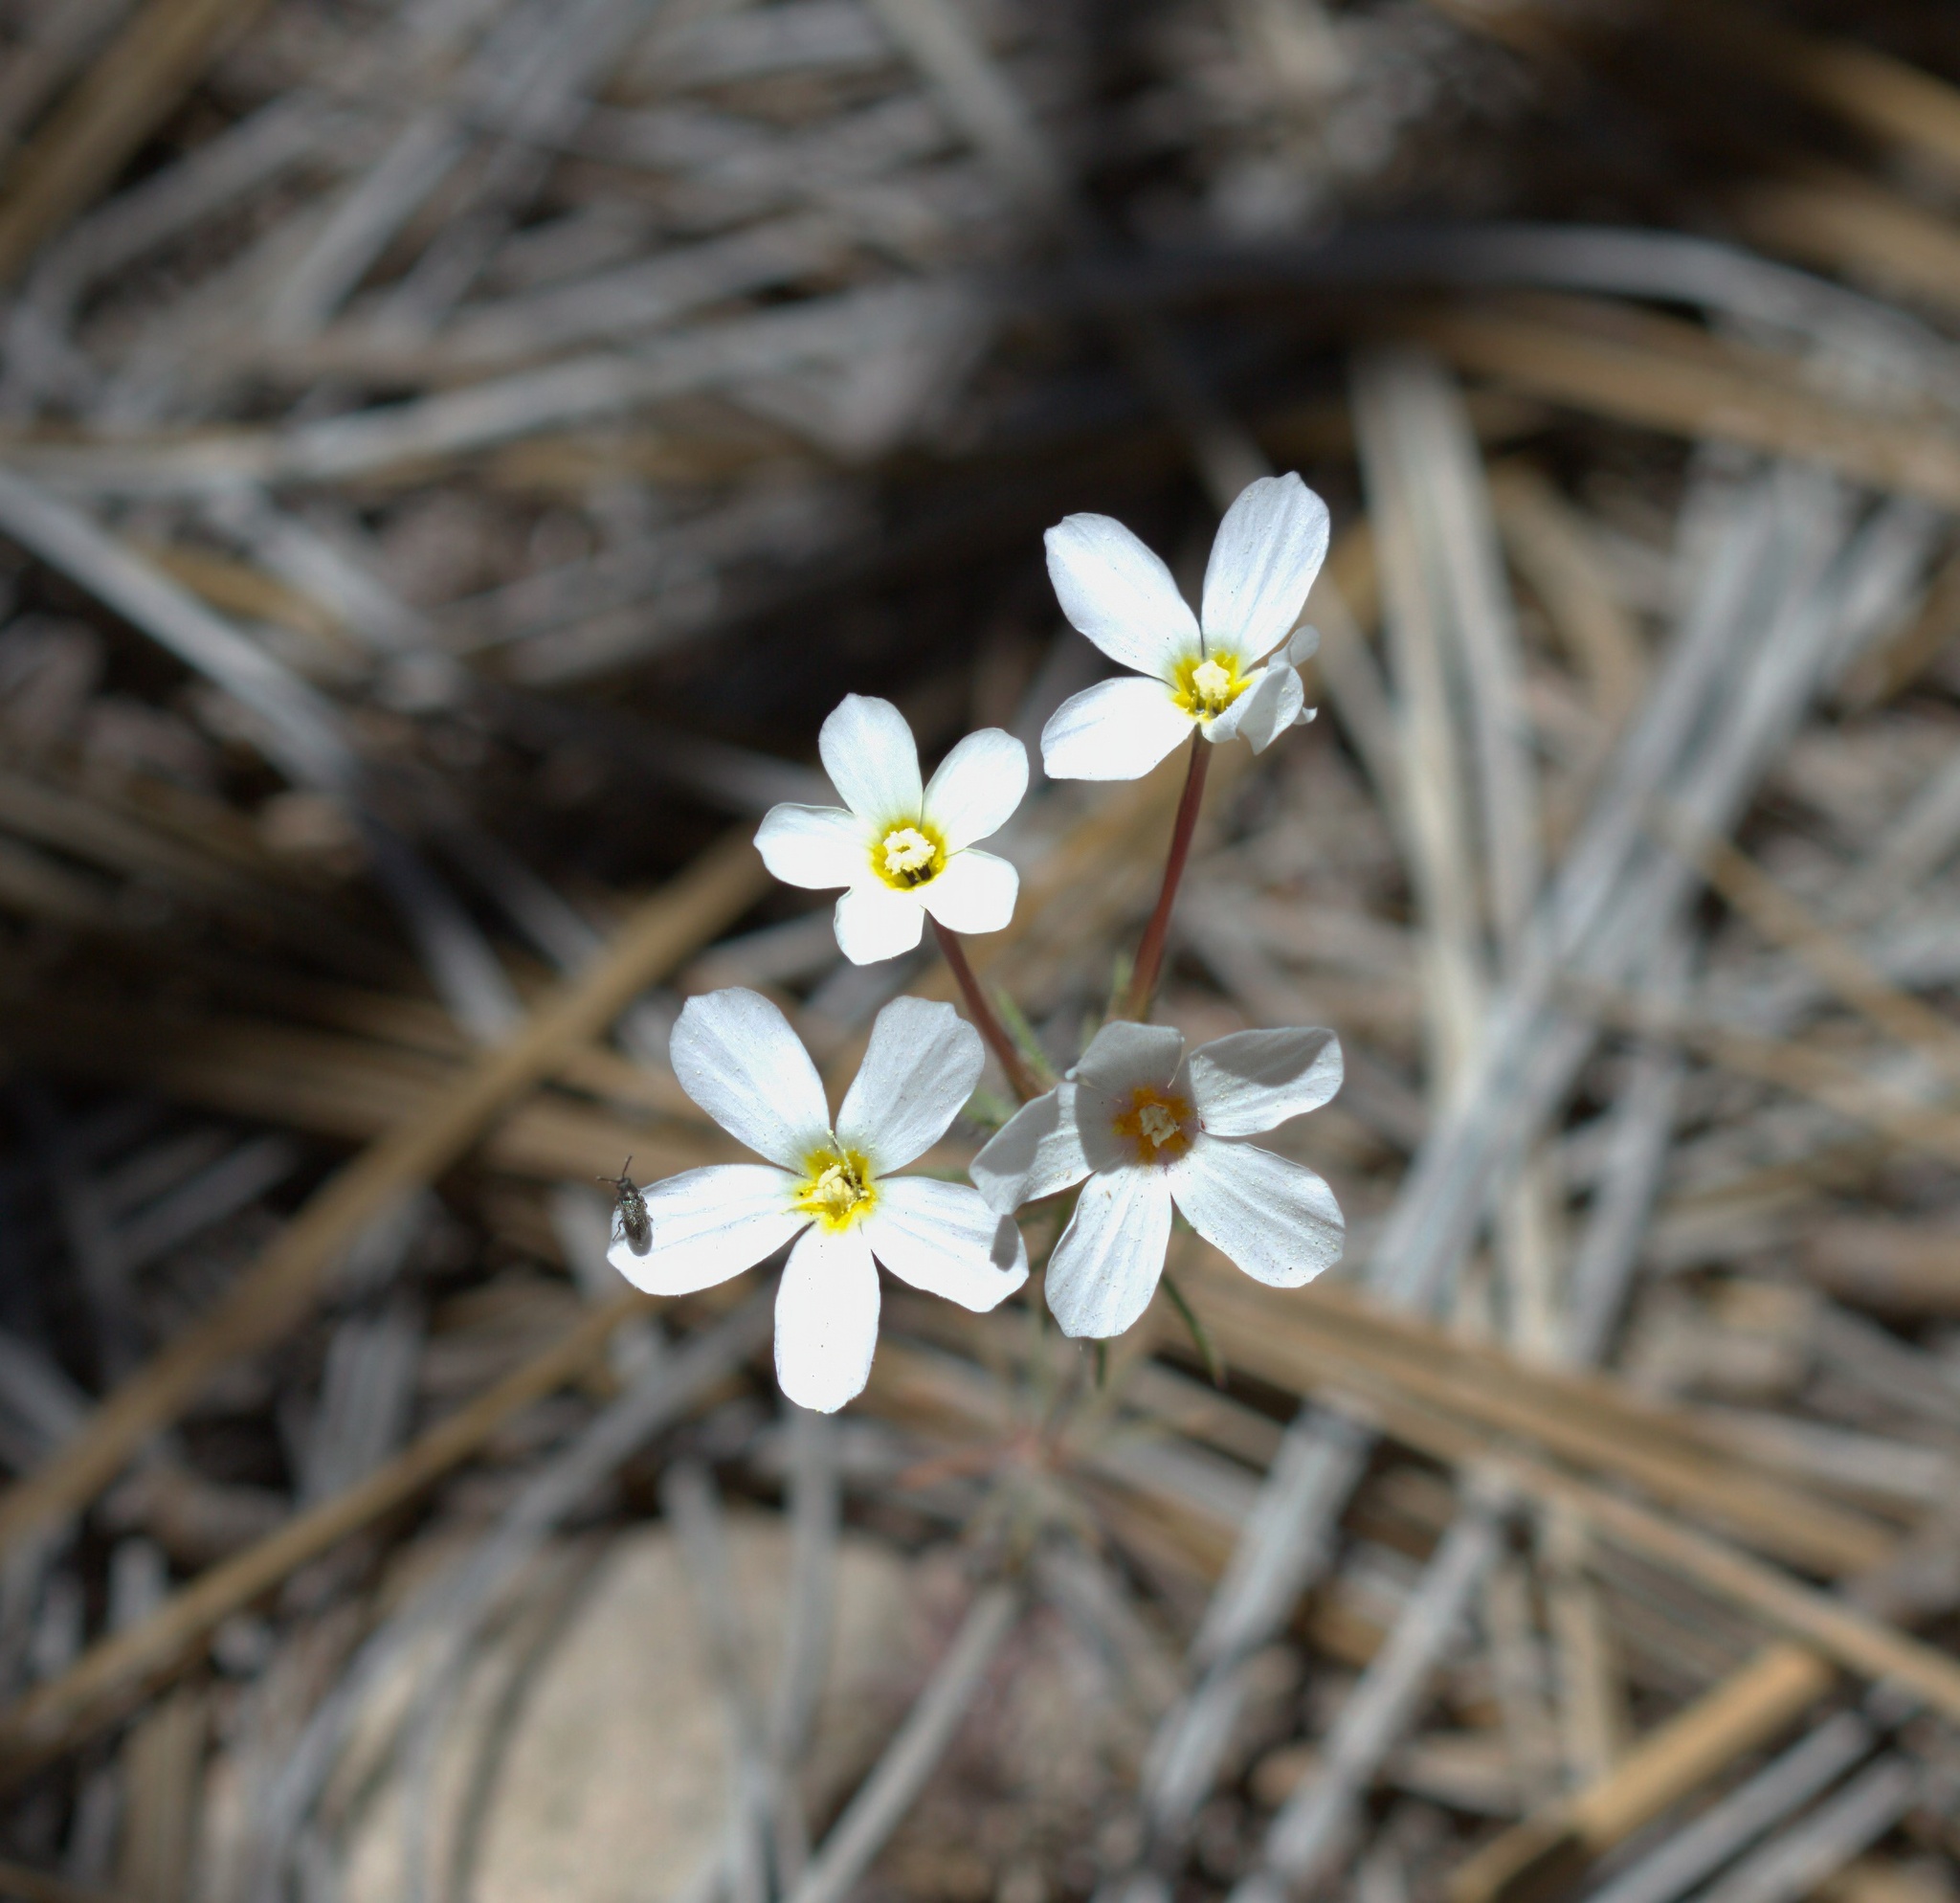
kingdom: Plantae
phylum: Tracheophyta
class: Magnoliopsida
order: Ericales
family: Polemoniaceae
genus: Leptosiphon
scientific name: Leptosiphon breviculus
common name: Mojave linanthus
